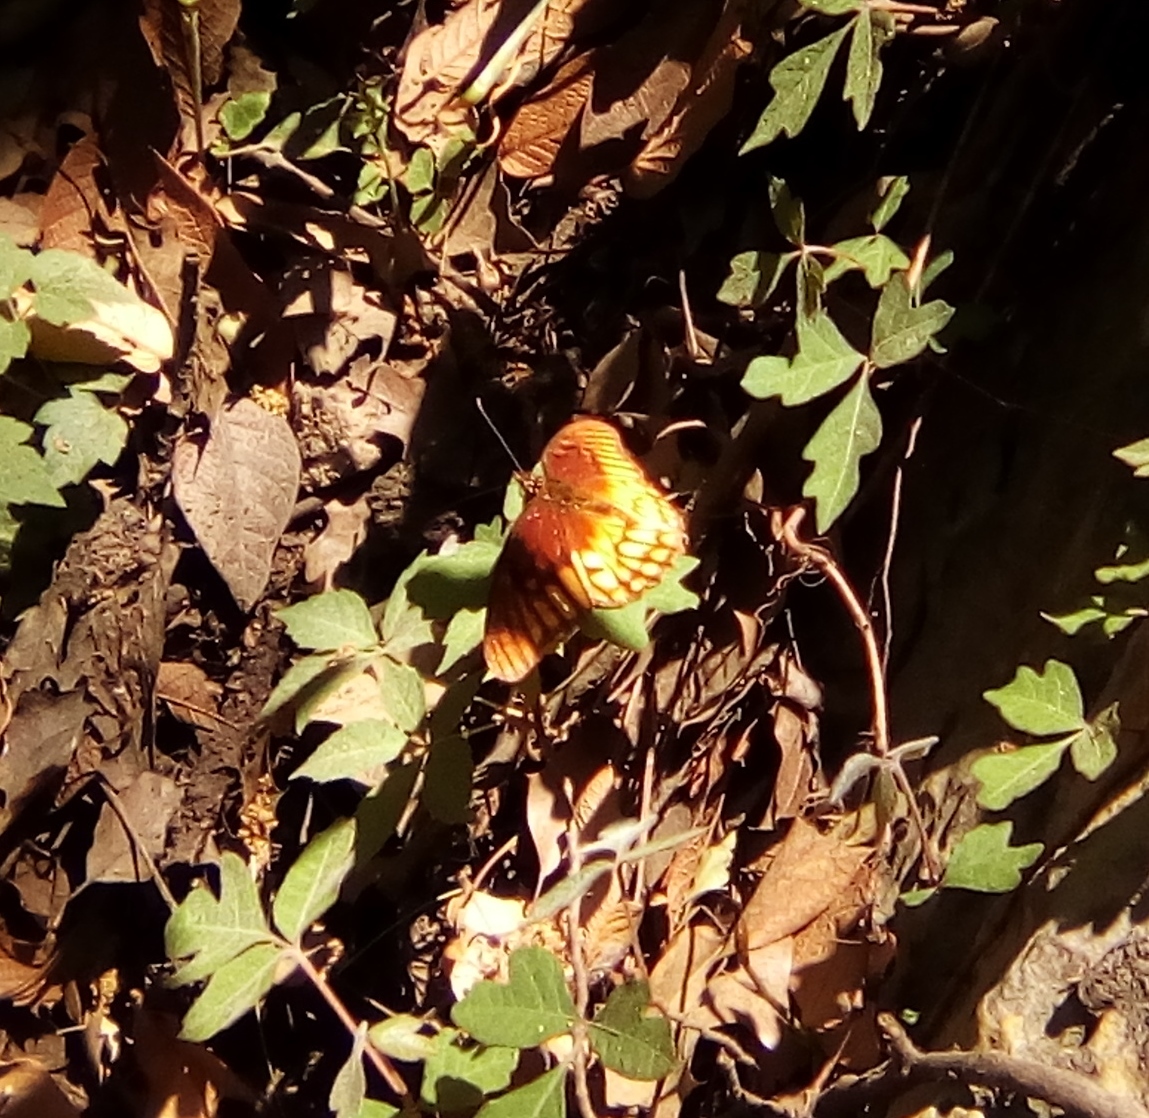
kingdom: Animalia
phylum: Arthropoda
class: Insecta
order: Lepidoptera
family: Nymphalidae
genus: Dione
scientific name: Dione moneta
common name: Mexican silverspot
